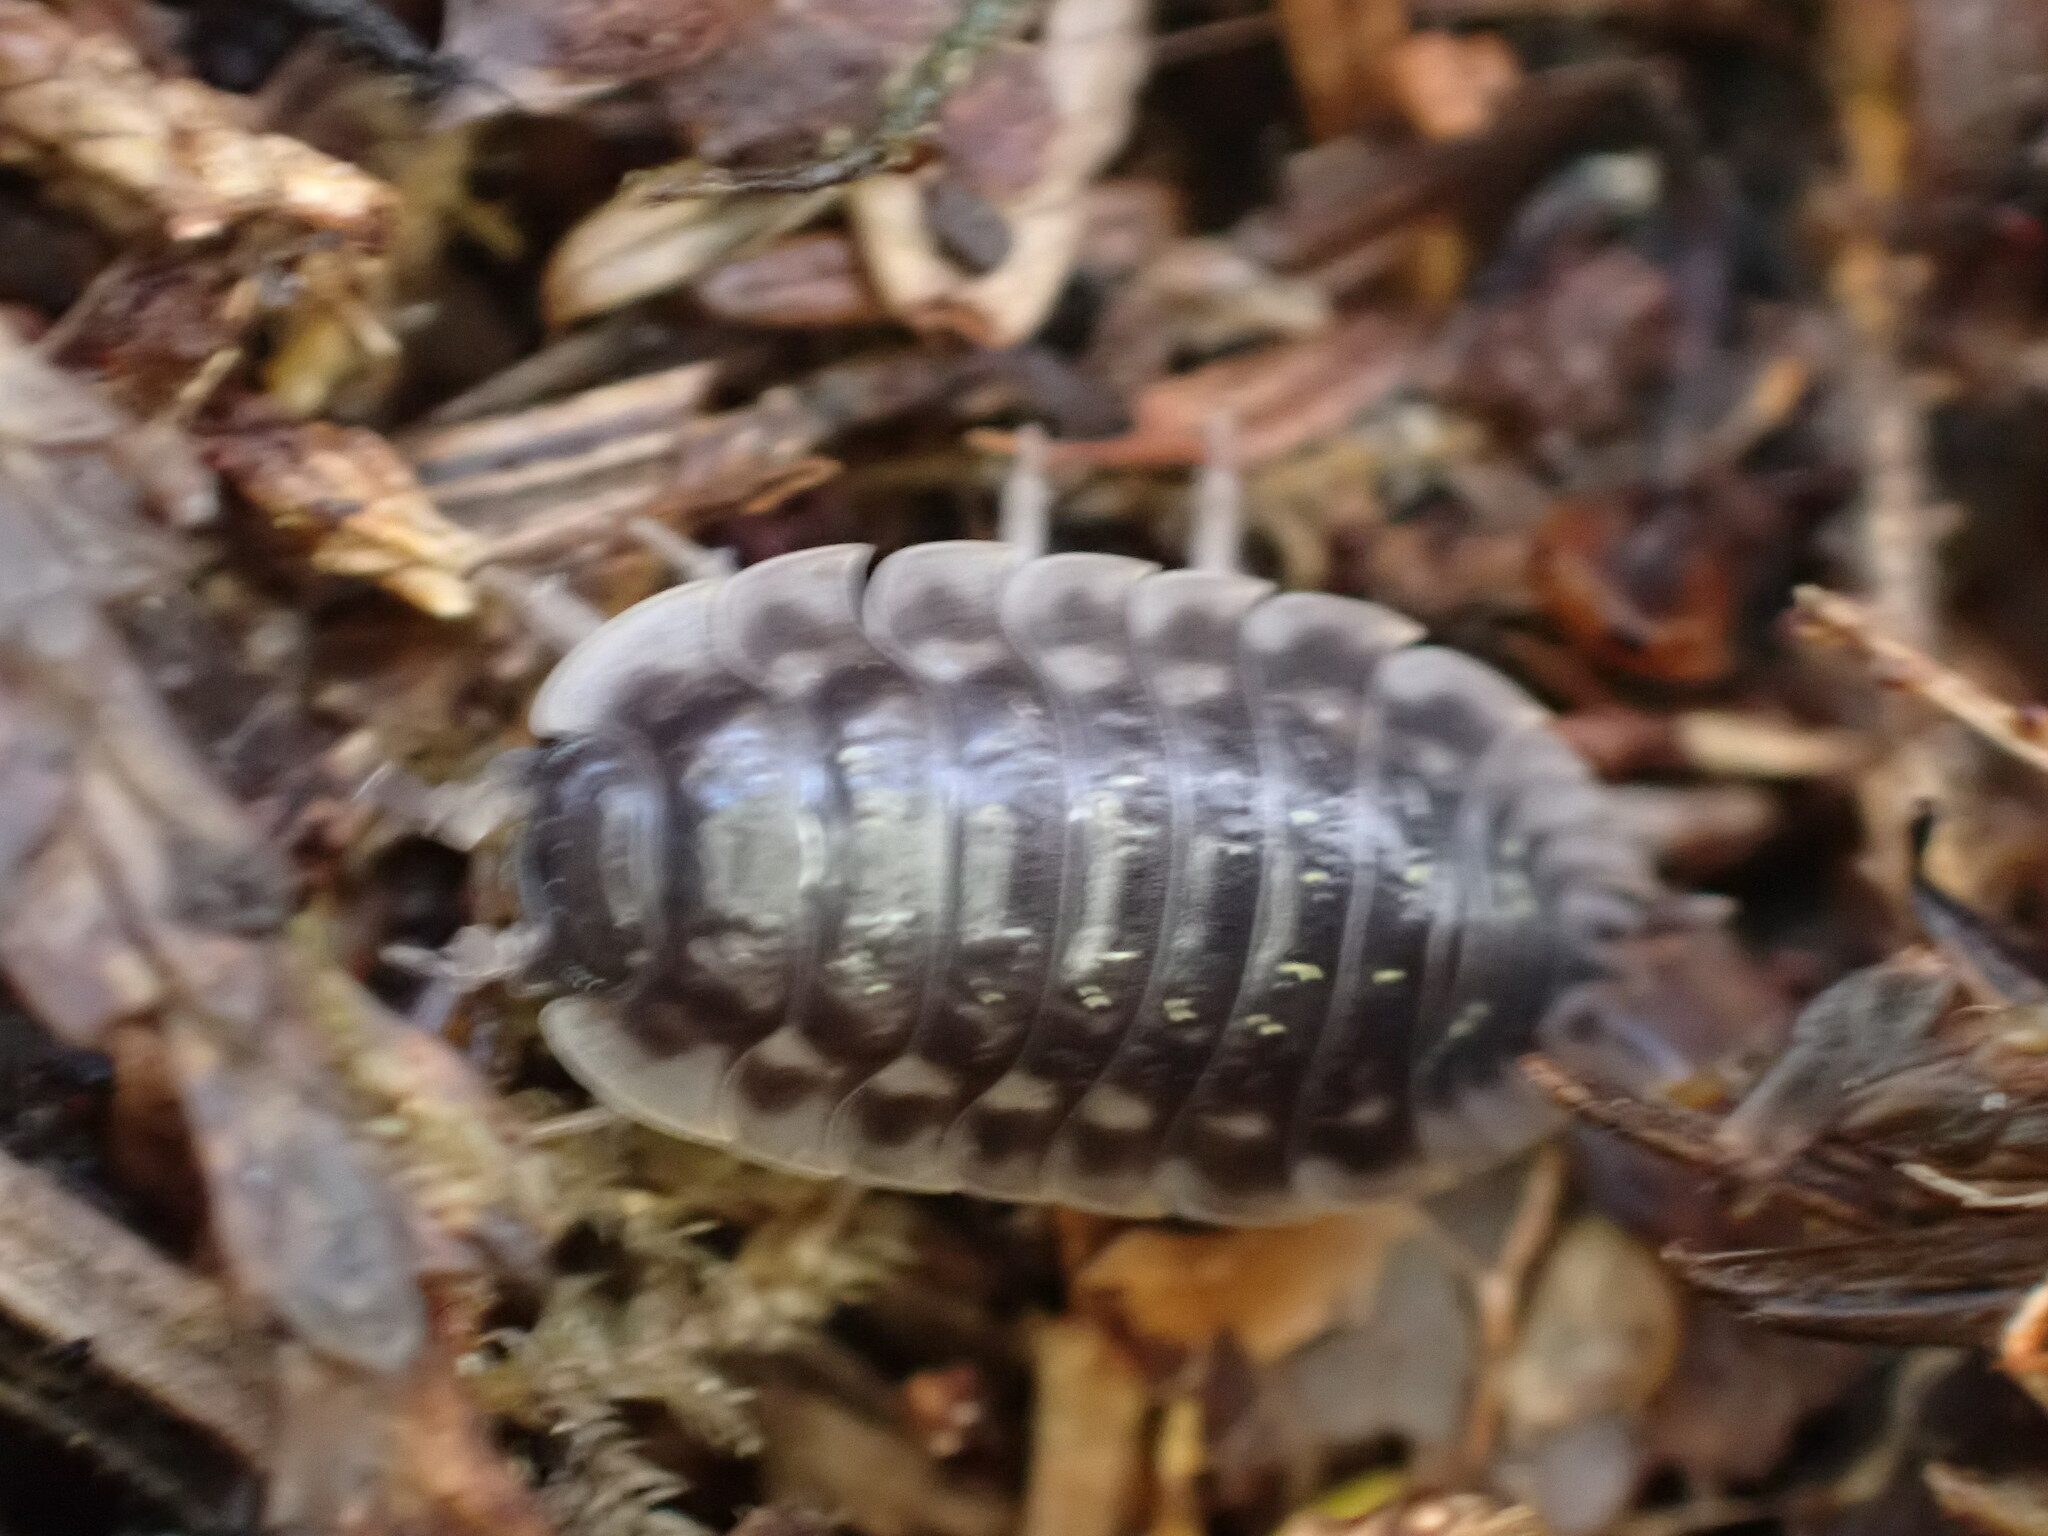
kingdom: Animalia
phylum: Arthropoda
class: Malacostraca
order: Isopoda
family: Oniscidae
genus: Oniscus
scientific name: Oniscus asellus
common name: Common shiny woodlouse
